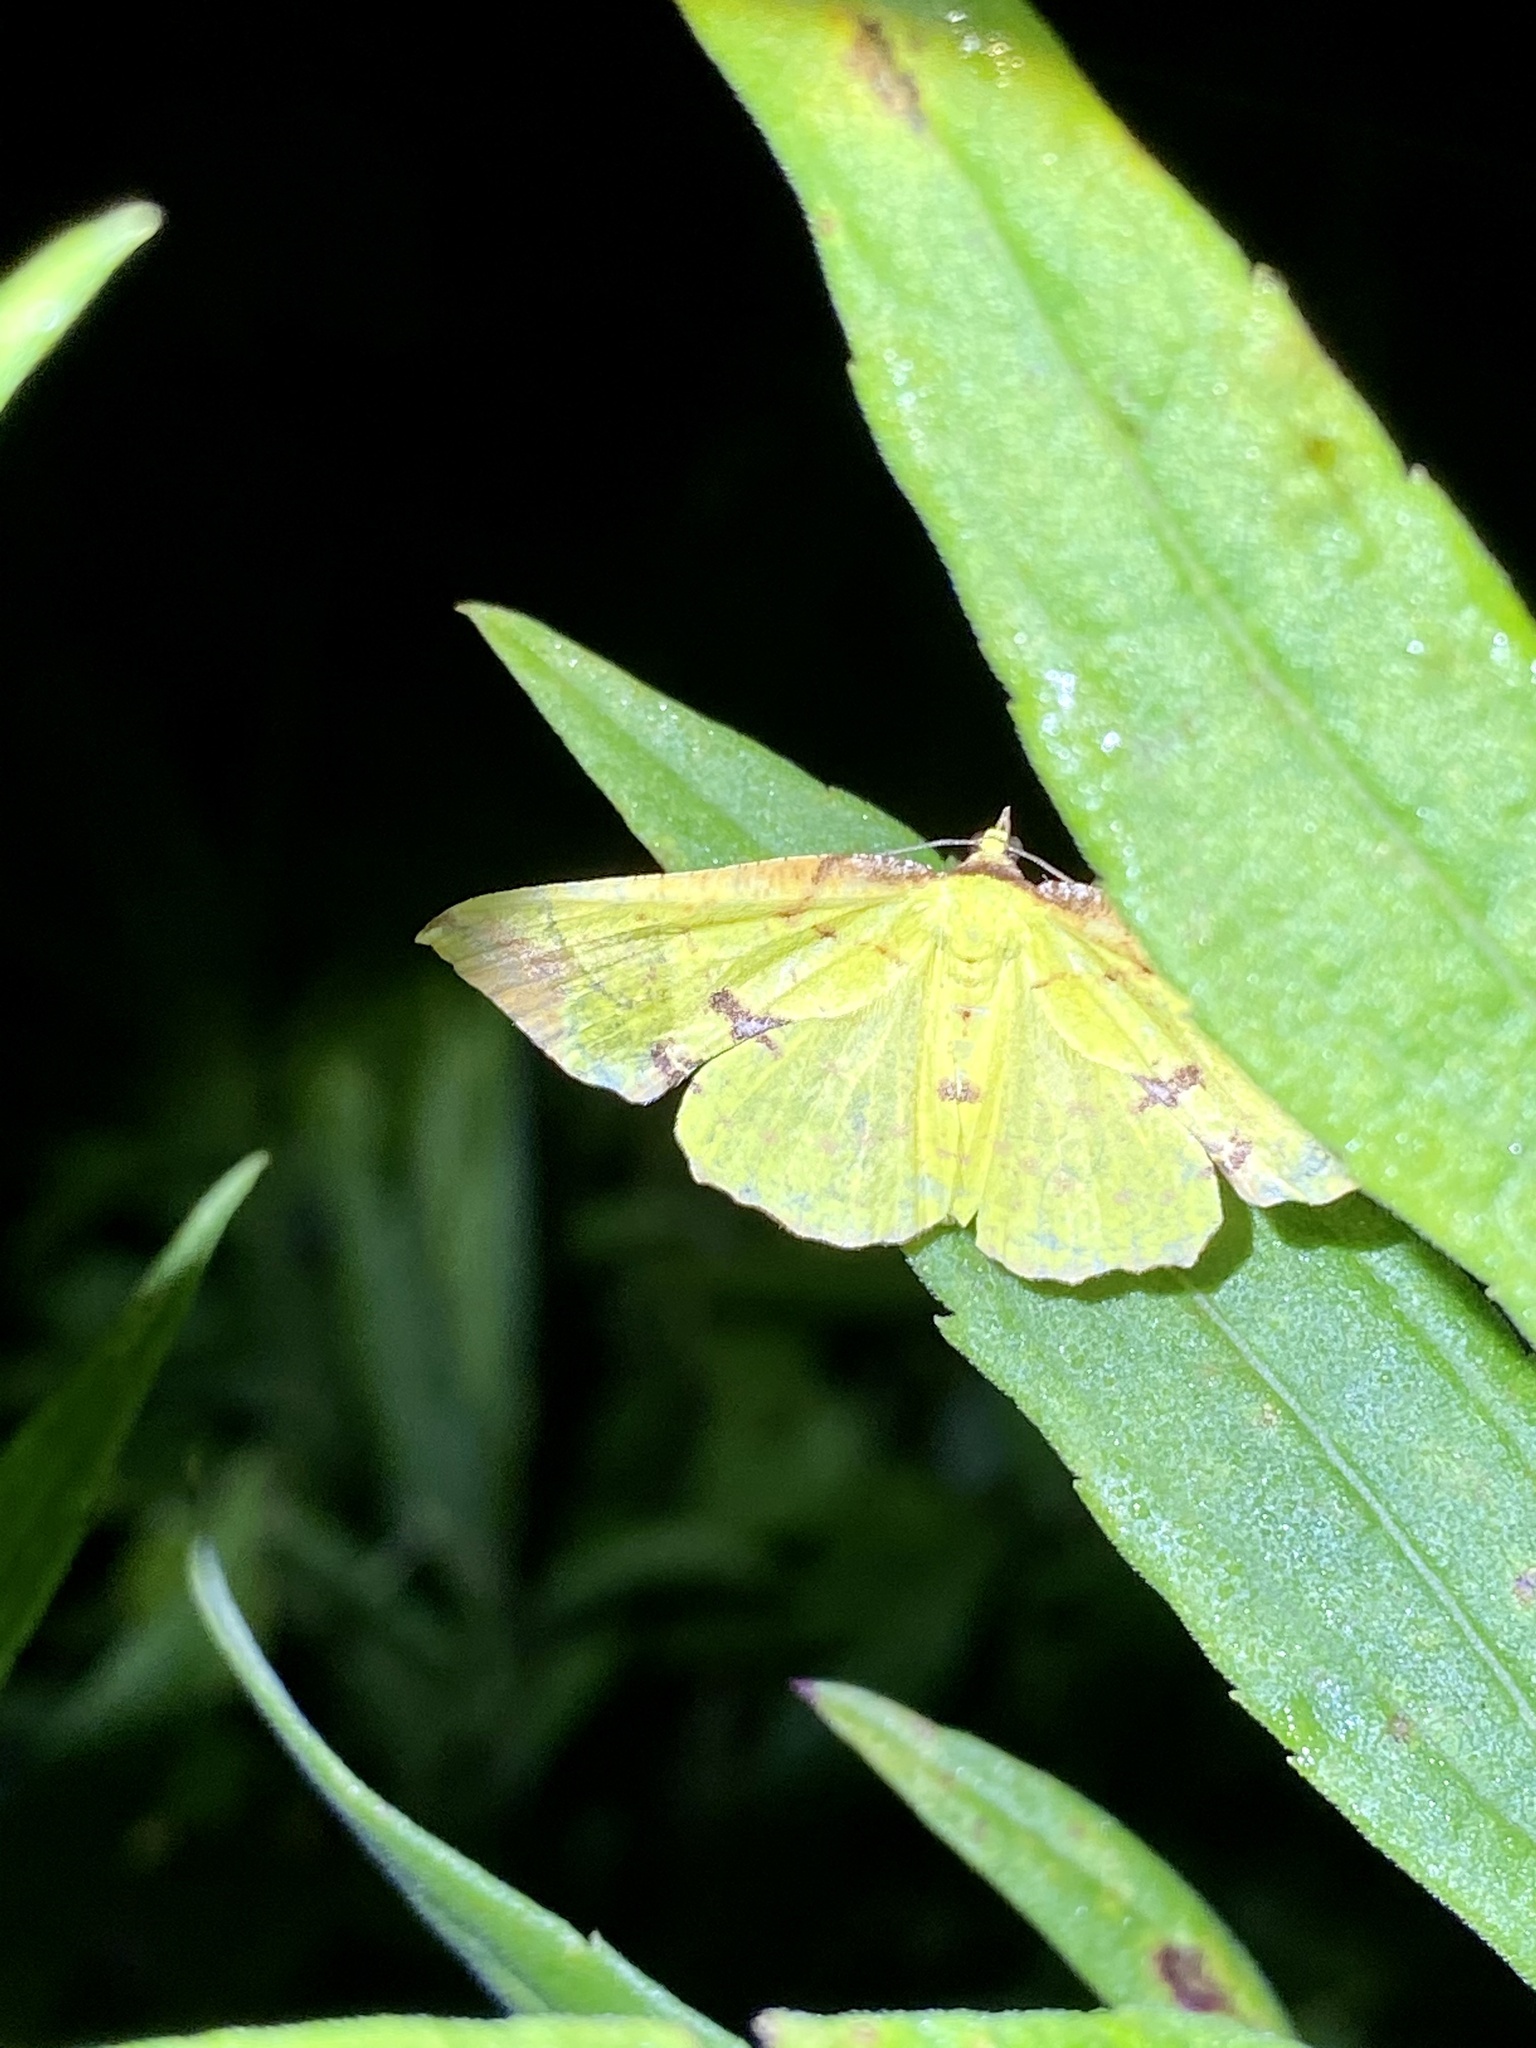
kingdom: Animalia
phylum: Arthropoda
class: Insecta
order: Lepidoptera
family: Geometridae
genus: Corymica
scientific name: Corymica pryeri
